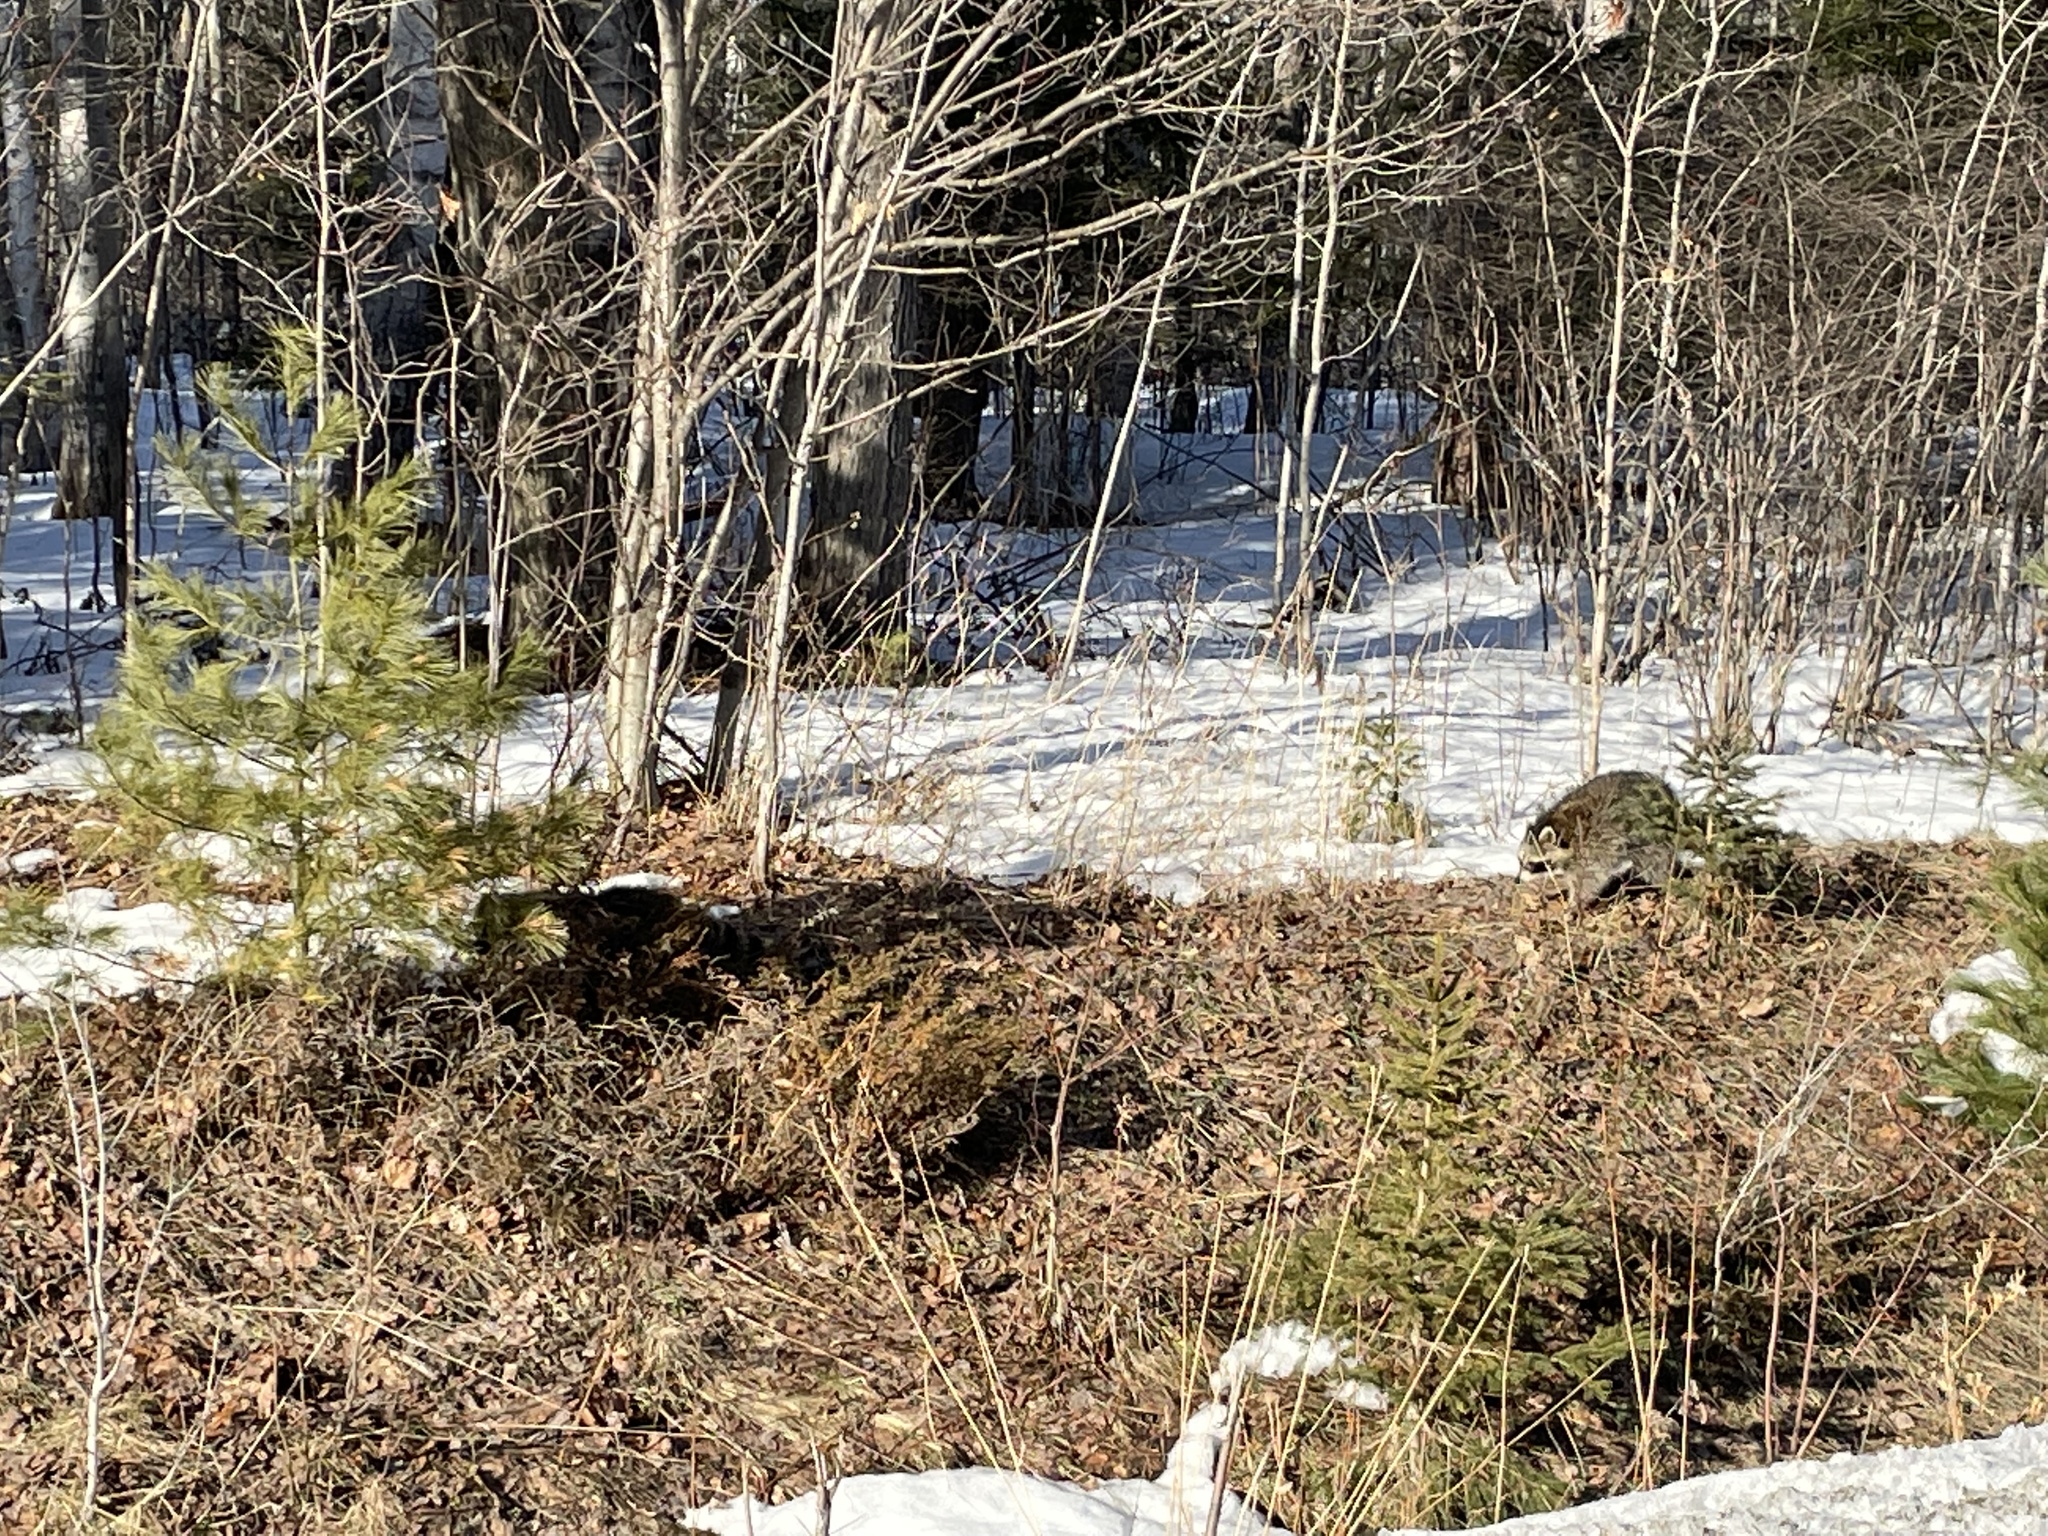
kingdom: Animalia
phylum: Chordata
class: Mammalia
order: Carnivora
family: Procyonidae
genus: Procyon
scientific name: Procyon lotor
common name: Raccoon
